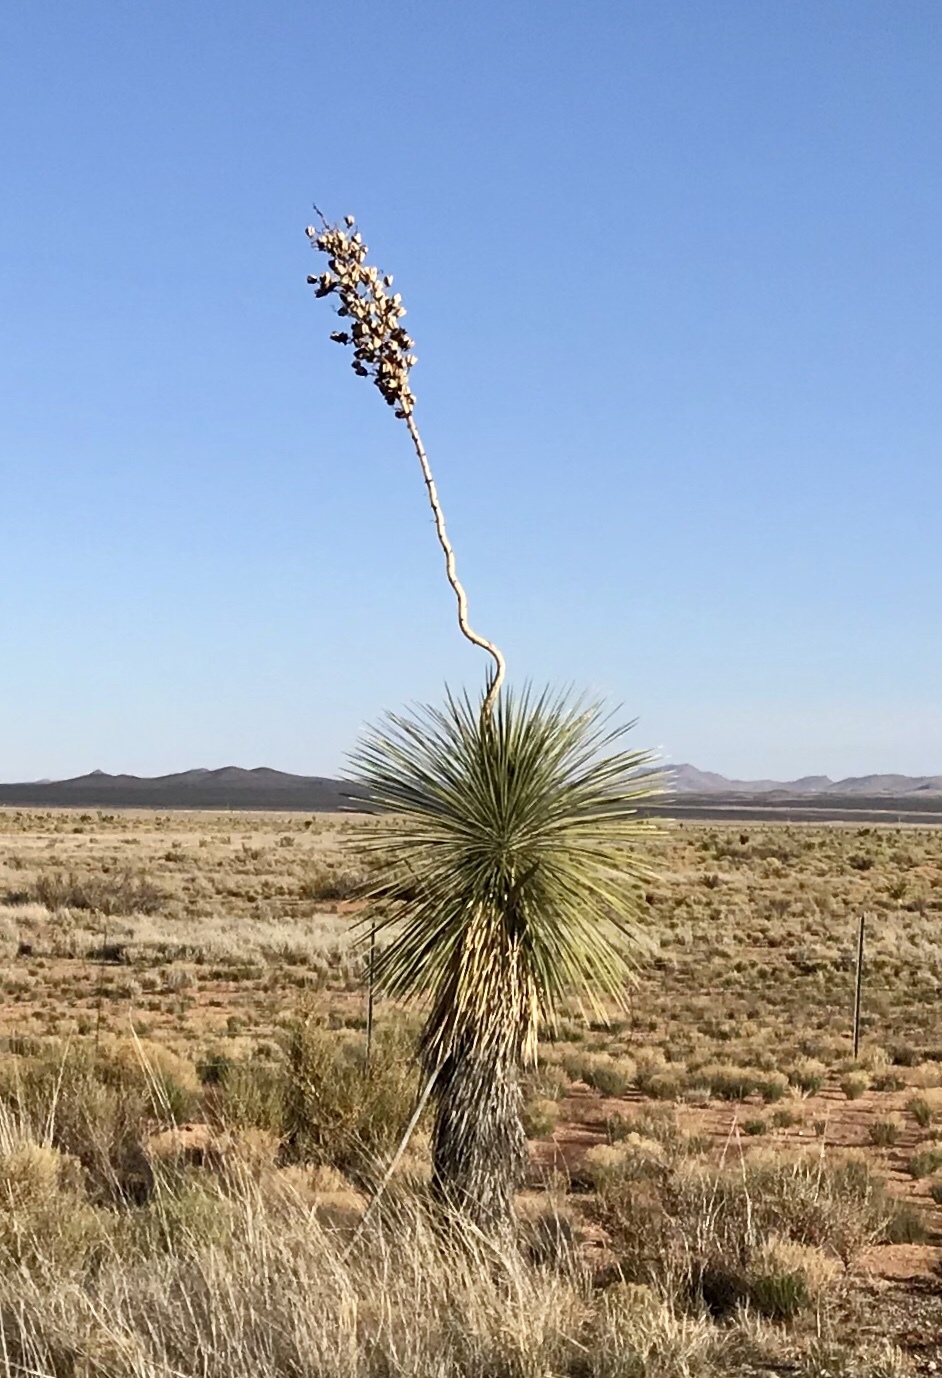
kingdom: Plantae
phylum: Tracheophyta
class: Liliopsida
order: Asparagales
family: Asparagaceae
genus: Yucca
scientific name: Yucca elata
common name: Palmella
